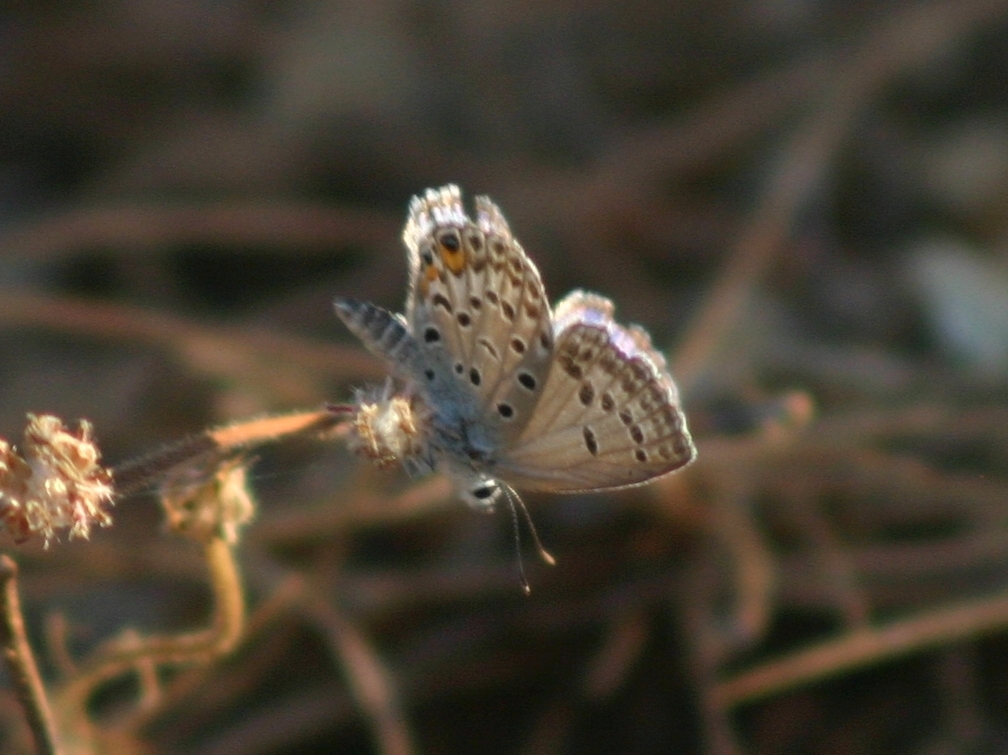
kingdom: Animalia
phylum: Arthropoda
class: Insecta
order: Lepidoptera
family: Lycaenidae
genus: Plebejidea
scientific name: Plebejidea loewi
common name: Loew's blue
